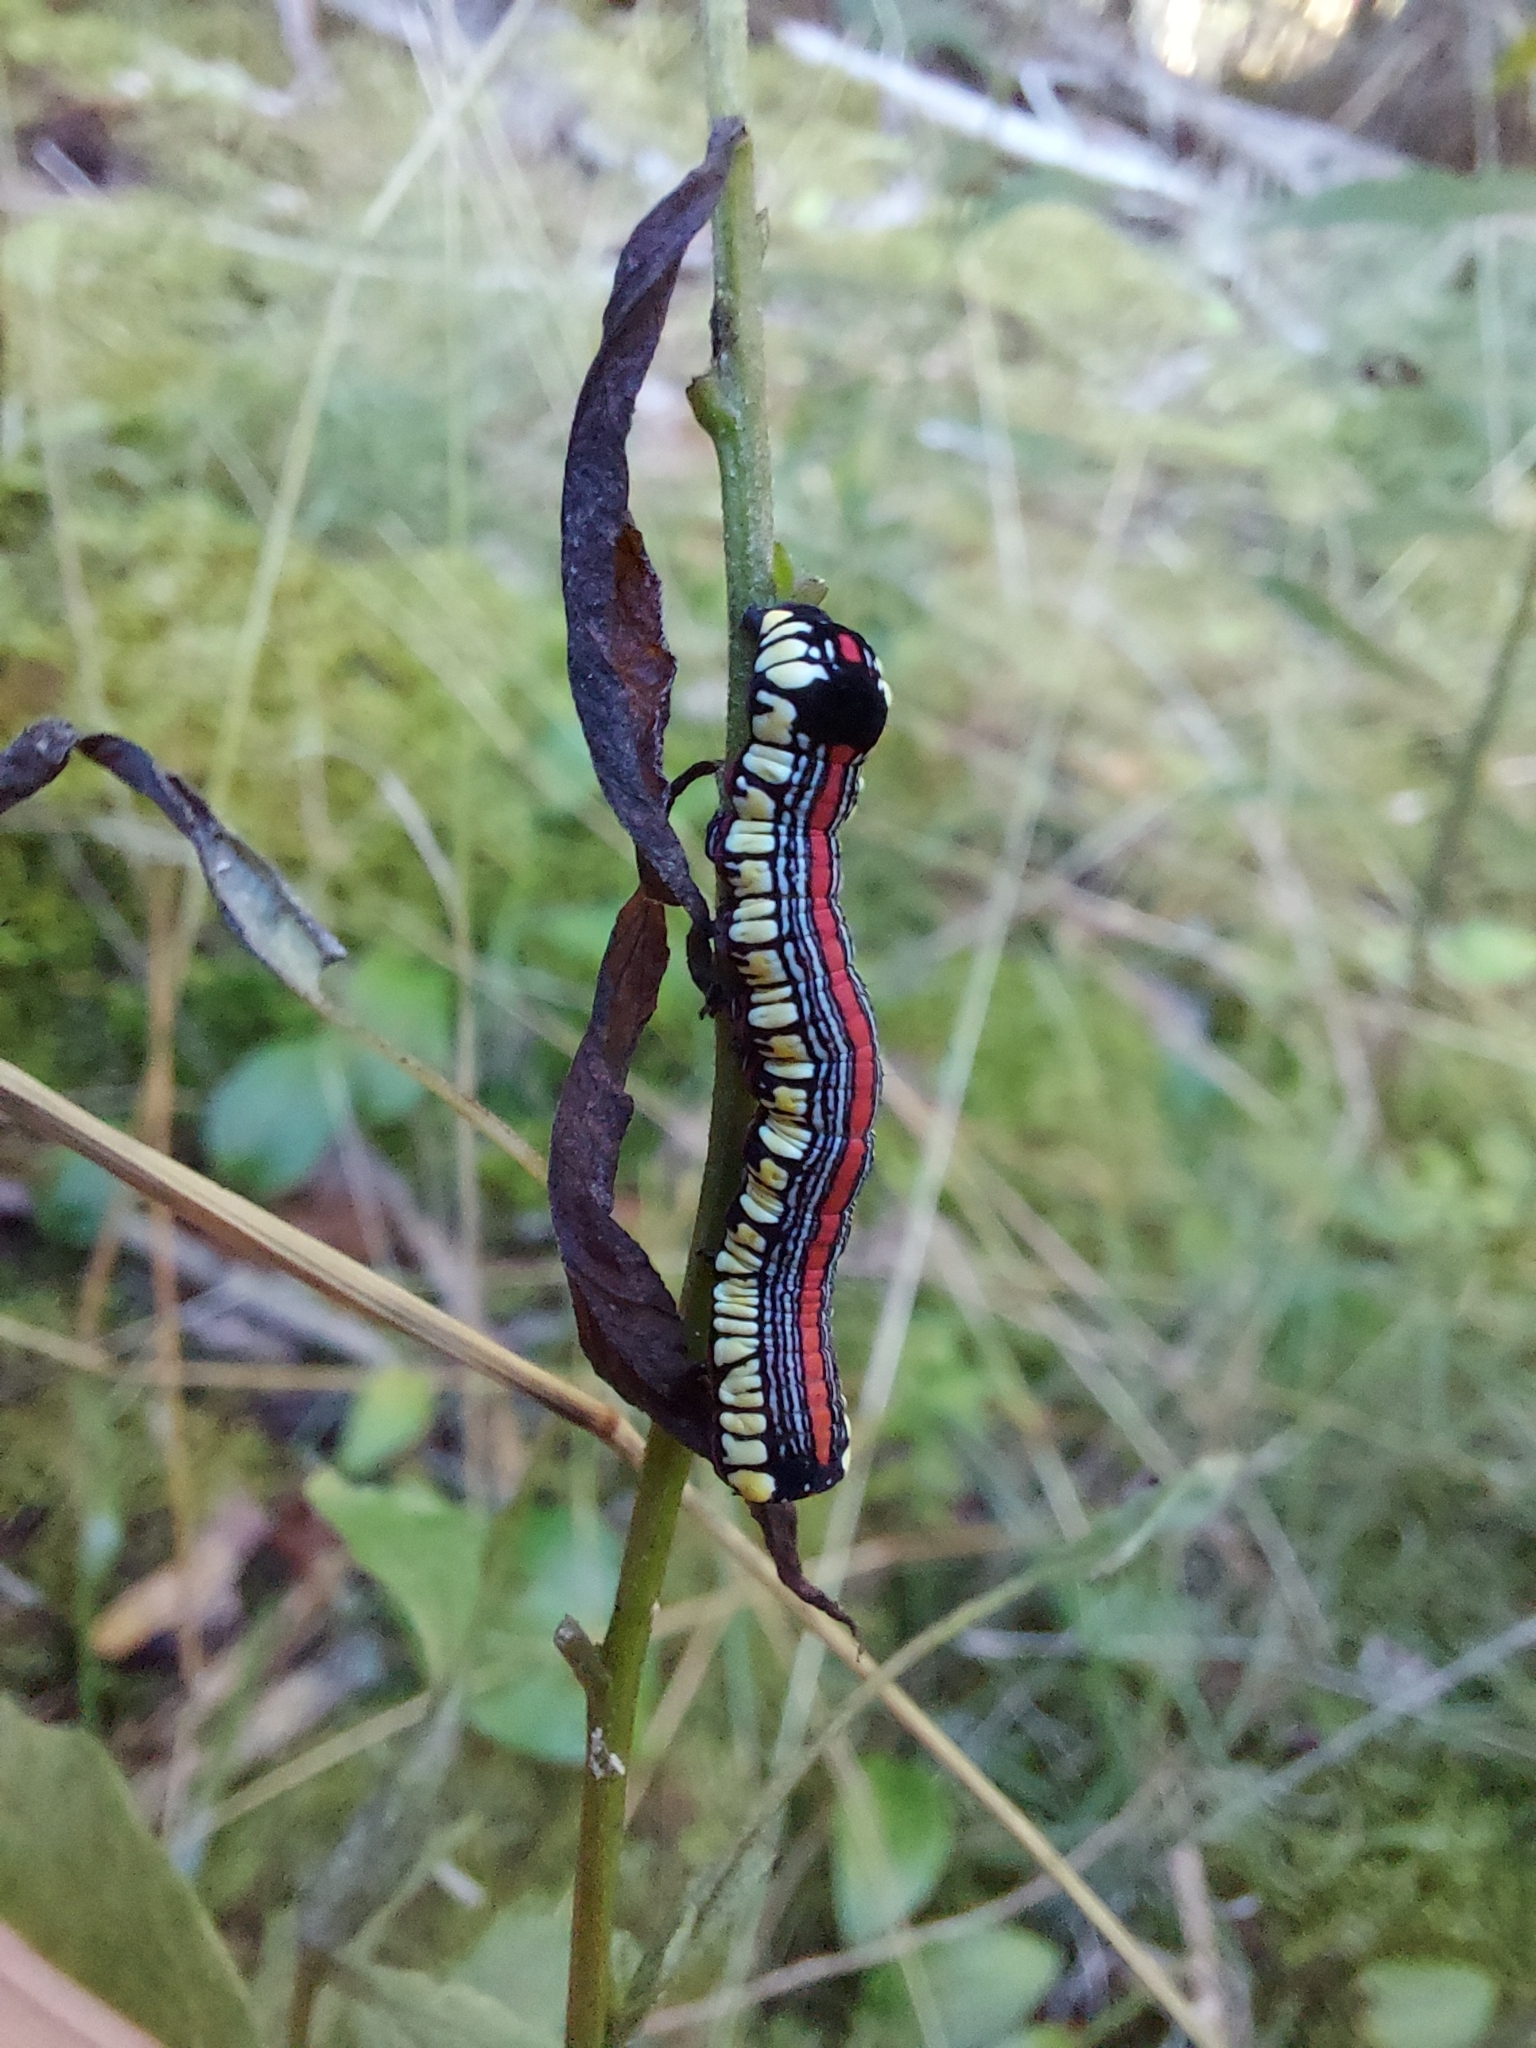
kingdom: Animalia
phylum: Arthropoda
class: Insecta
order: Lepidoptera
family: Noctuidae
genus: Cucullia
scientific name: Cucullia convexipennis
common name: Brown-hooded owlet
